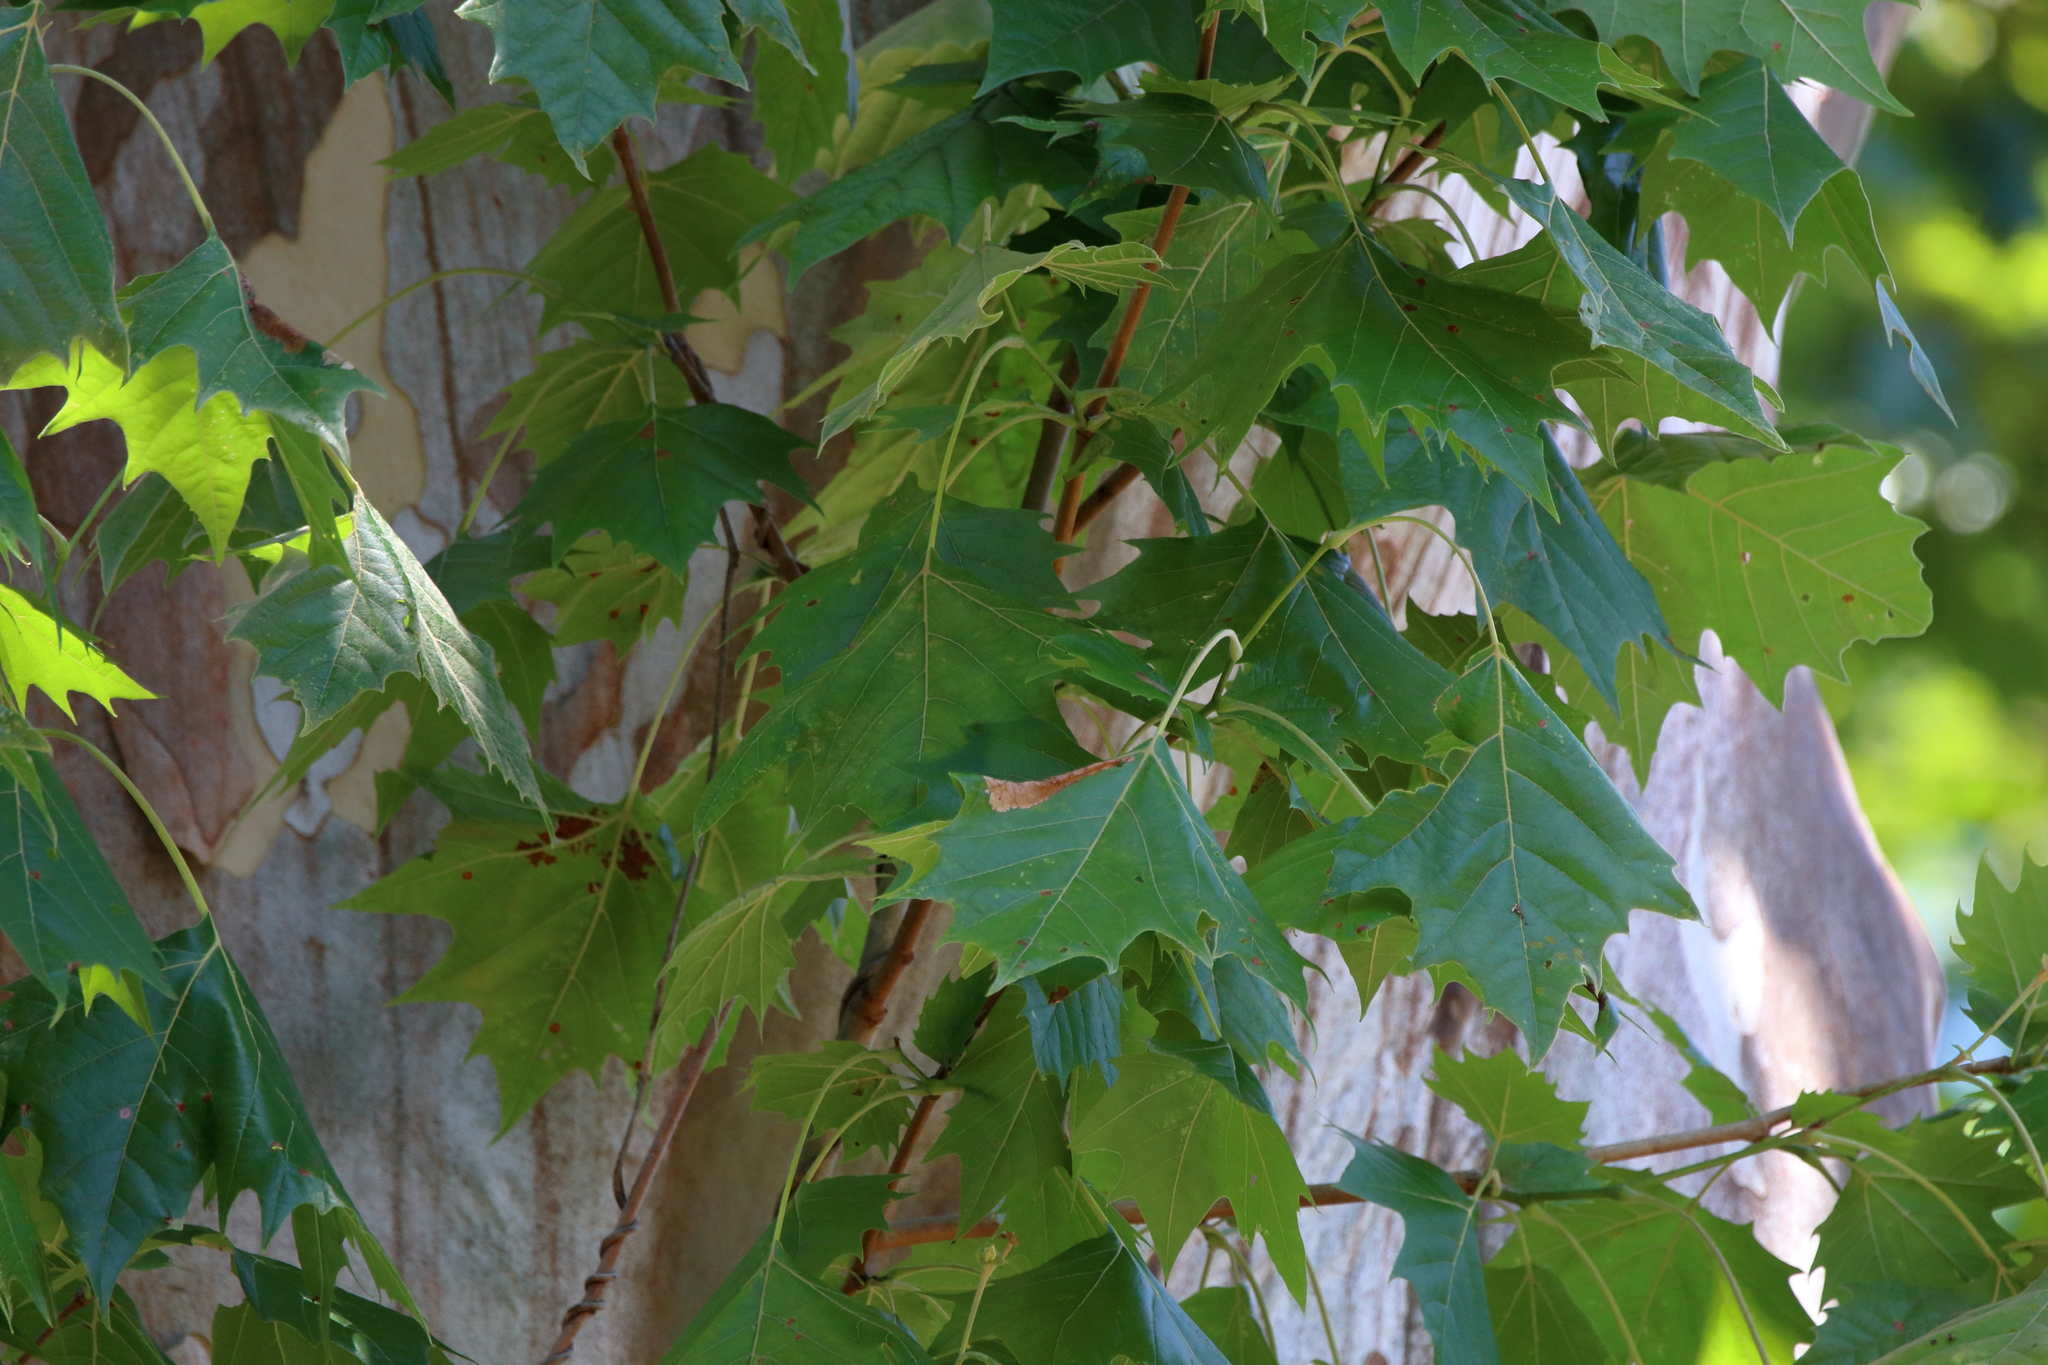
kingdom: Plantae
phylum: Tracheophyta
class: Magnoliopsida
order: Proteales
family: Platanaceae
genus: Platanus
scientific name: Platanus occidentalis
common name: American sycamore
